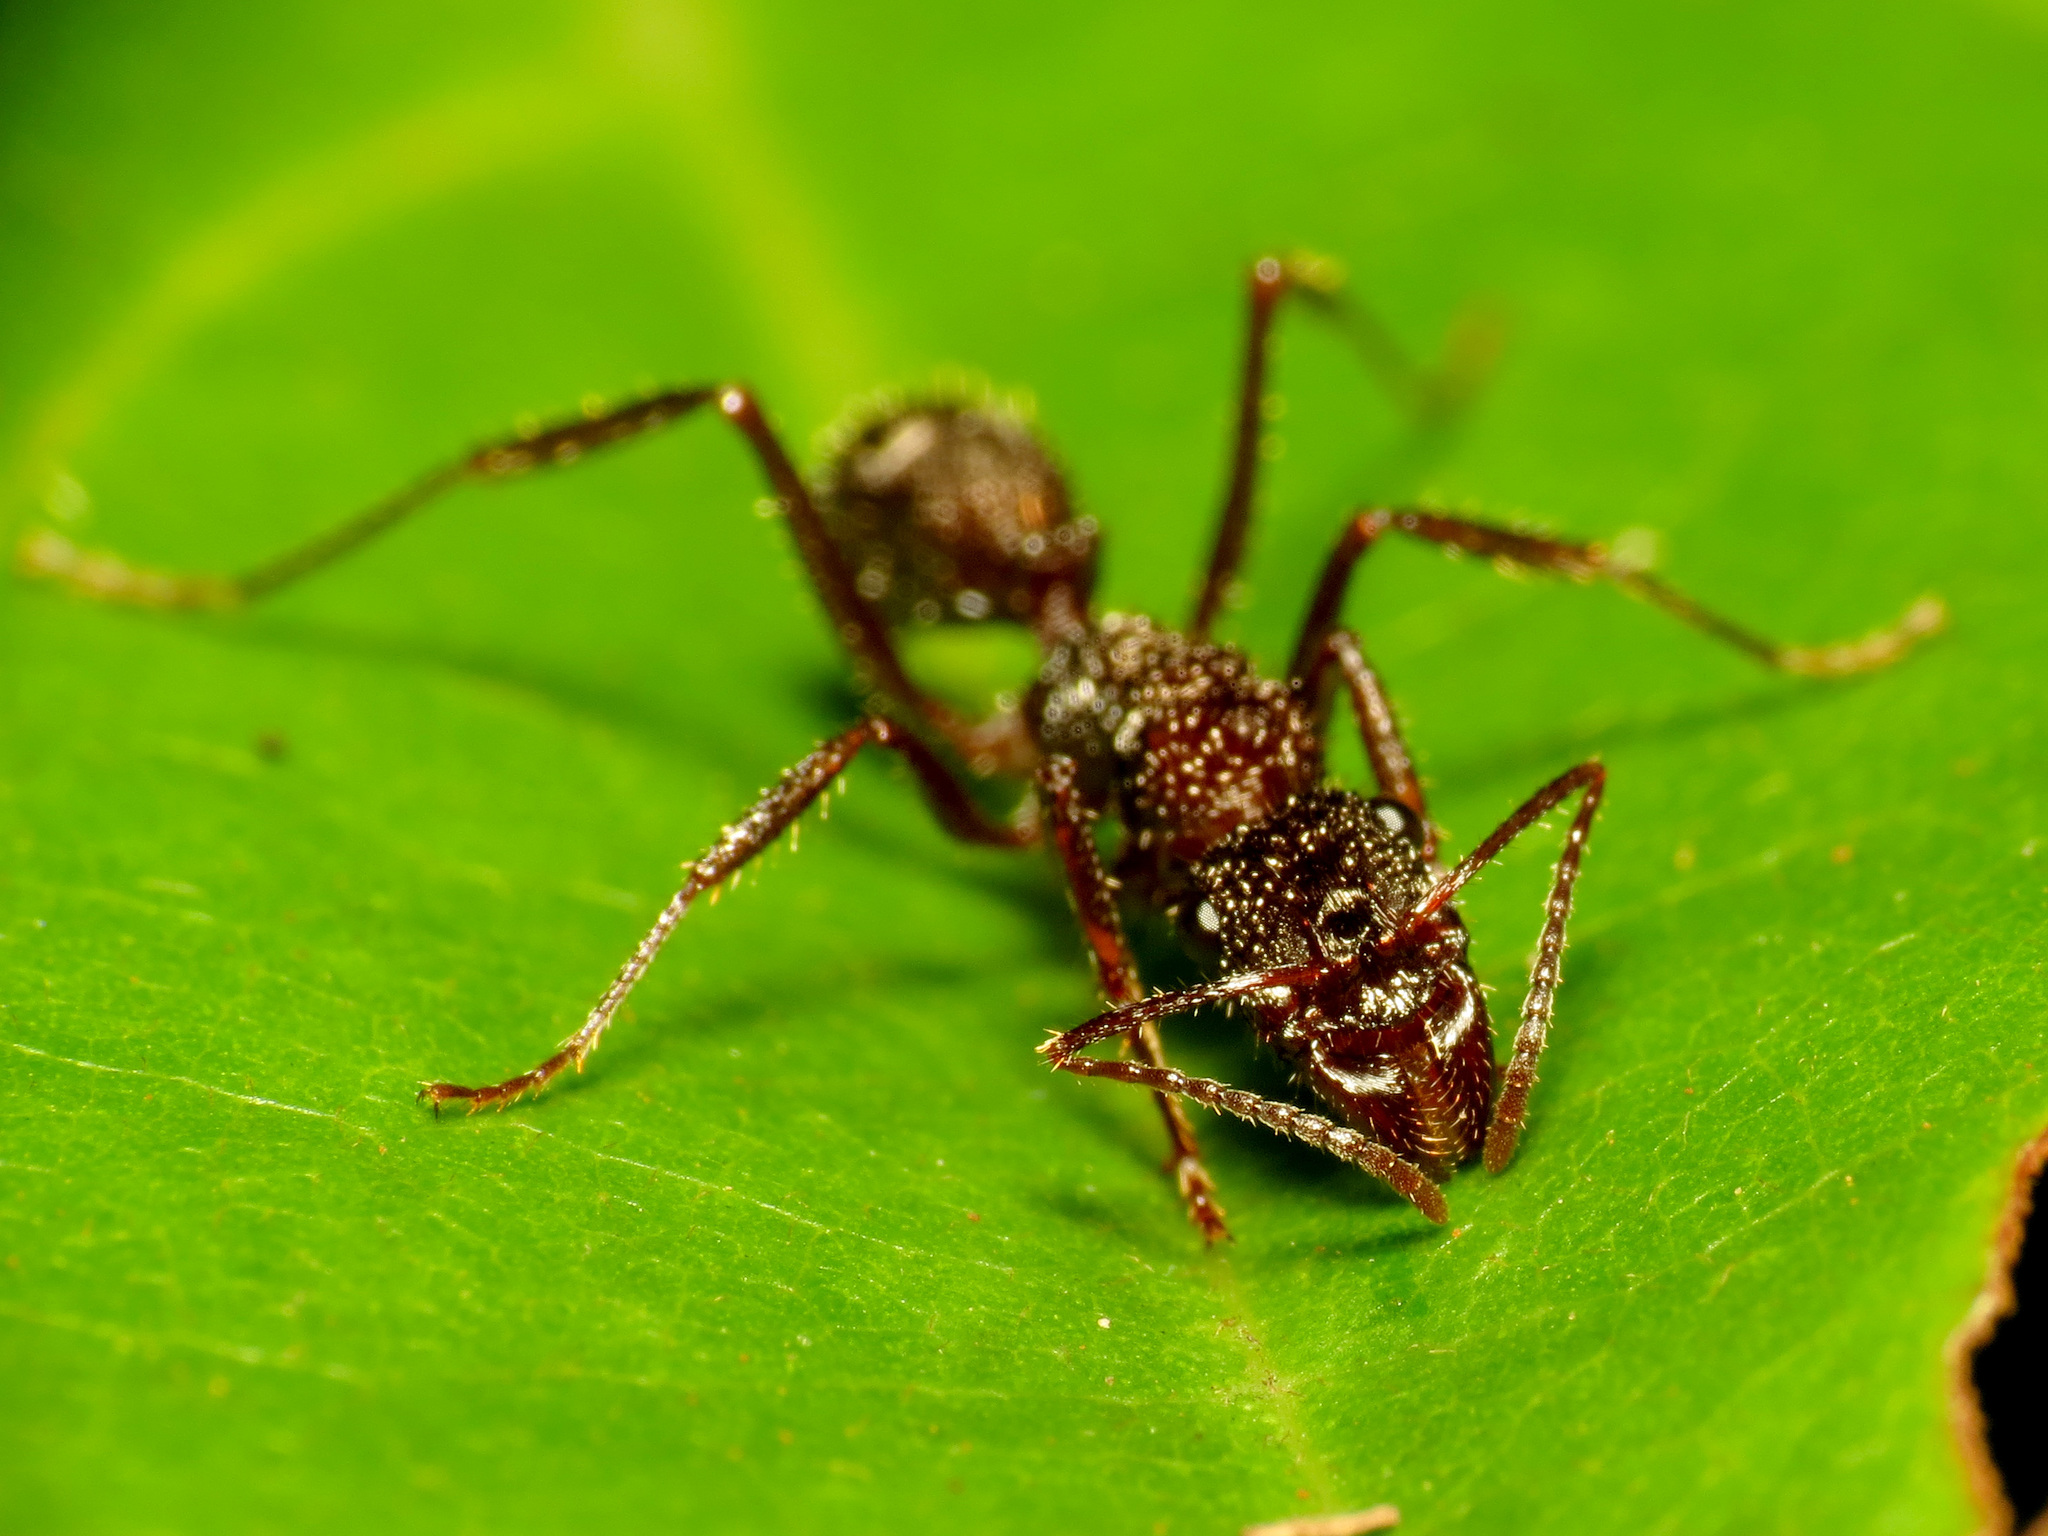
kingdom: Animalia
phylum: Arthropoda
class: Insecta
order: Hymenoptera
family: Formicidae
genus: Ectatomma
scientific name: Ectatomma ruidum
